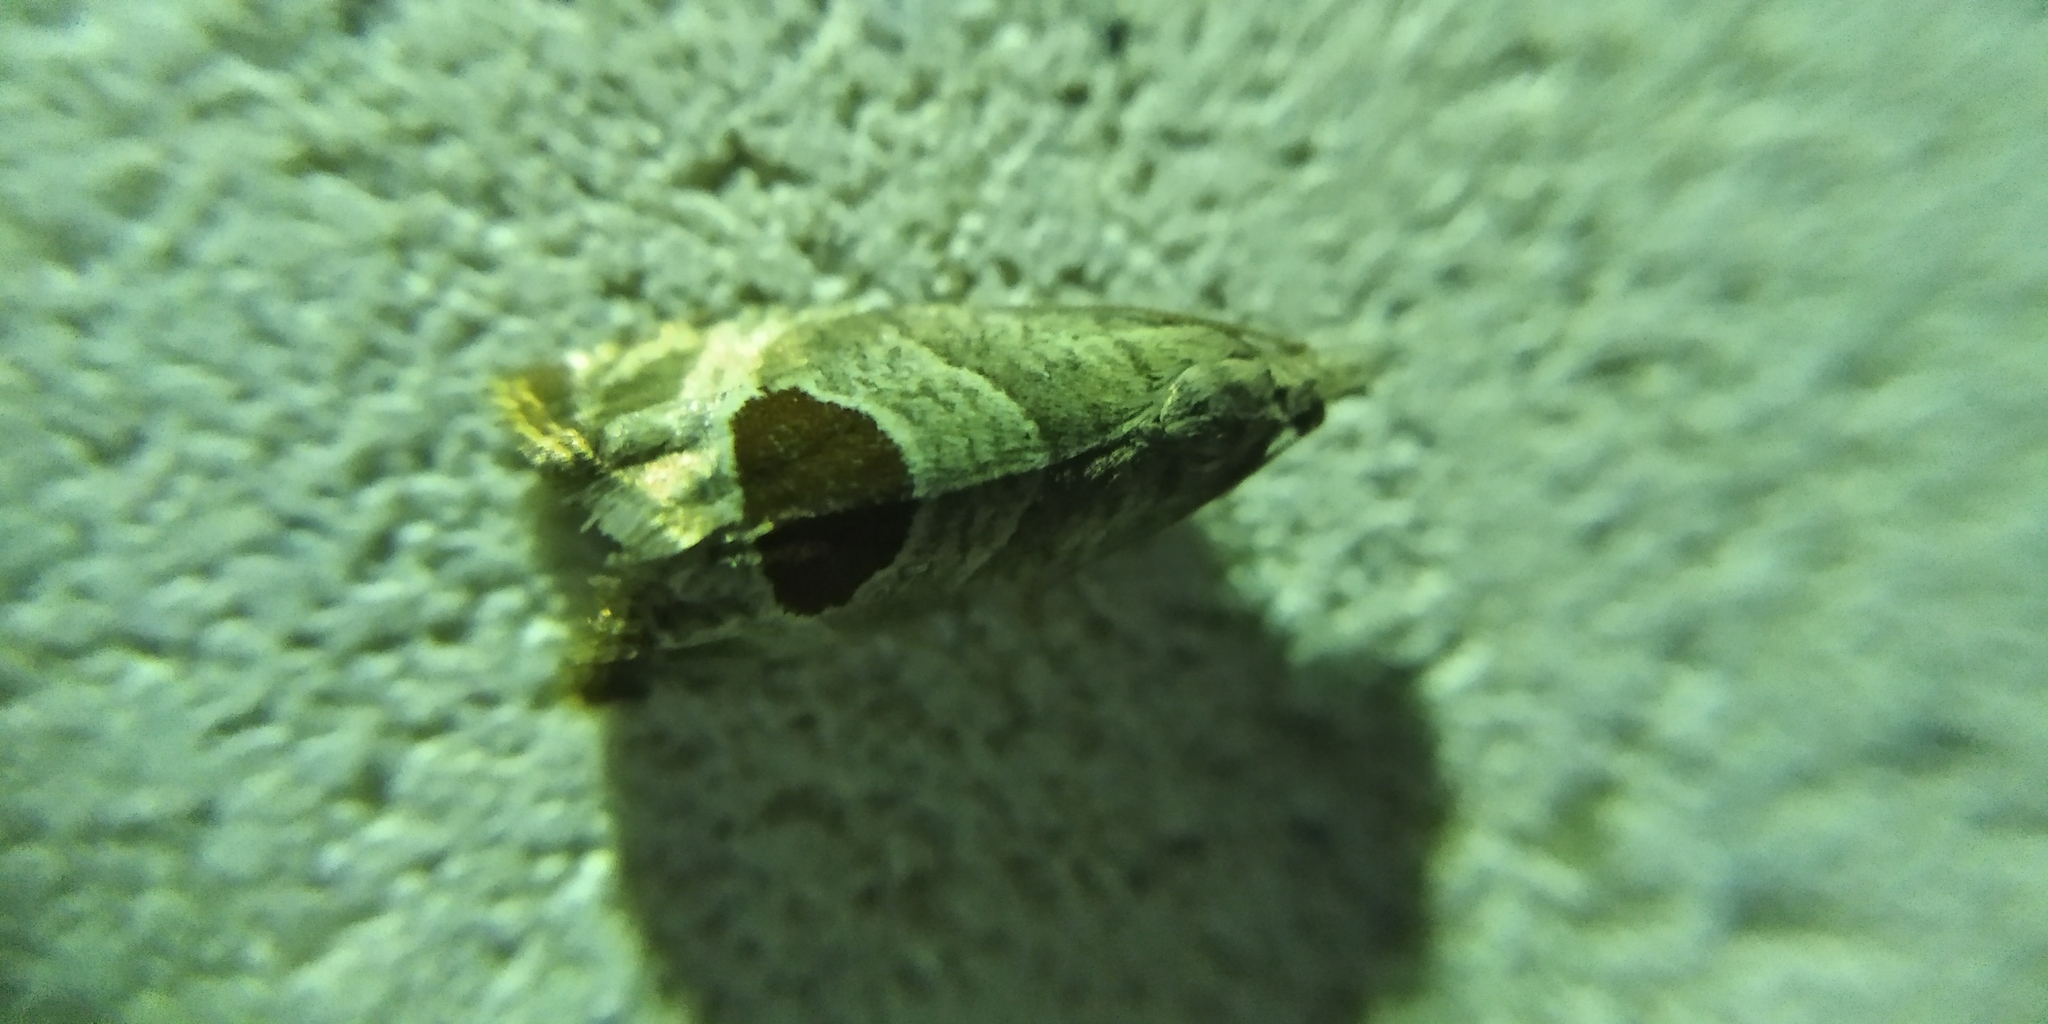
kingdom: Animalia
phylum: Arthropoda
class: Insecta
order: Lepidoptera
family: Tortricidae
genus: Notocelia
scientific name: Notocelia uddmanniana
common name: Bramble shoot moth
